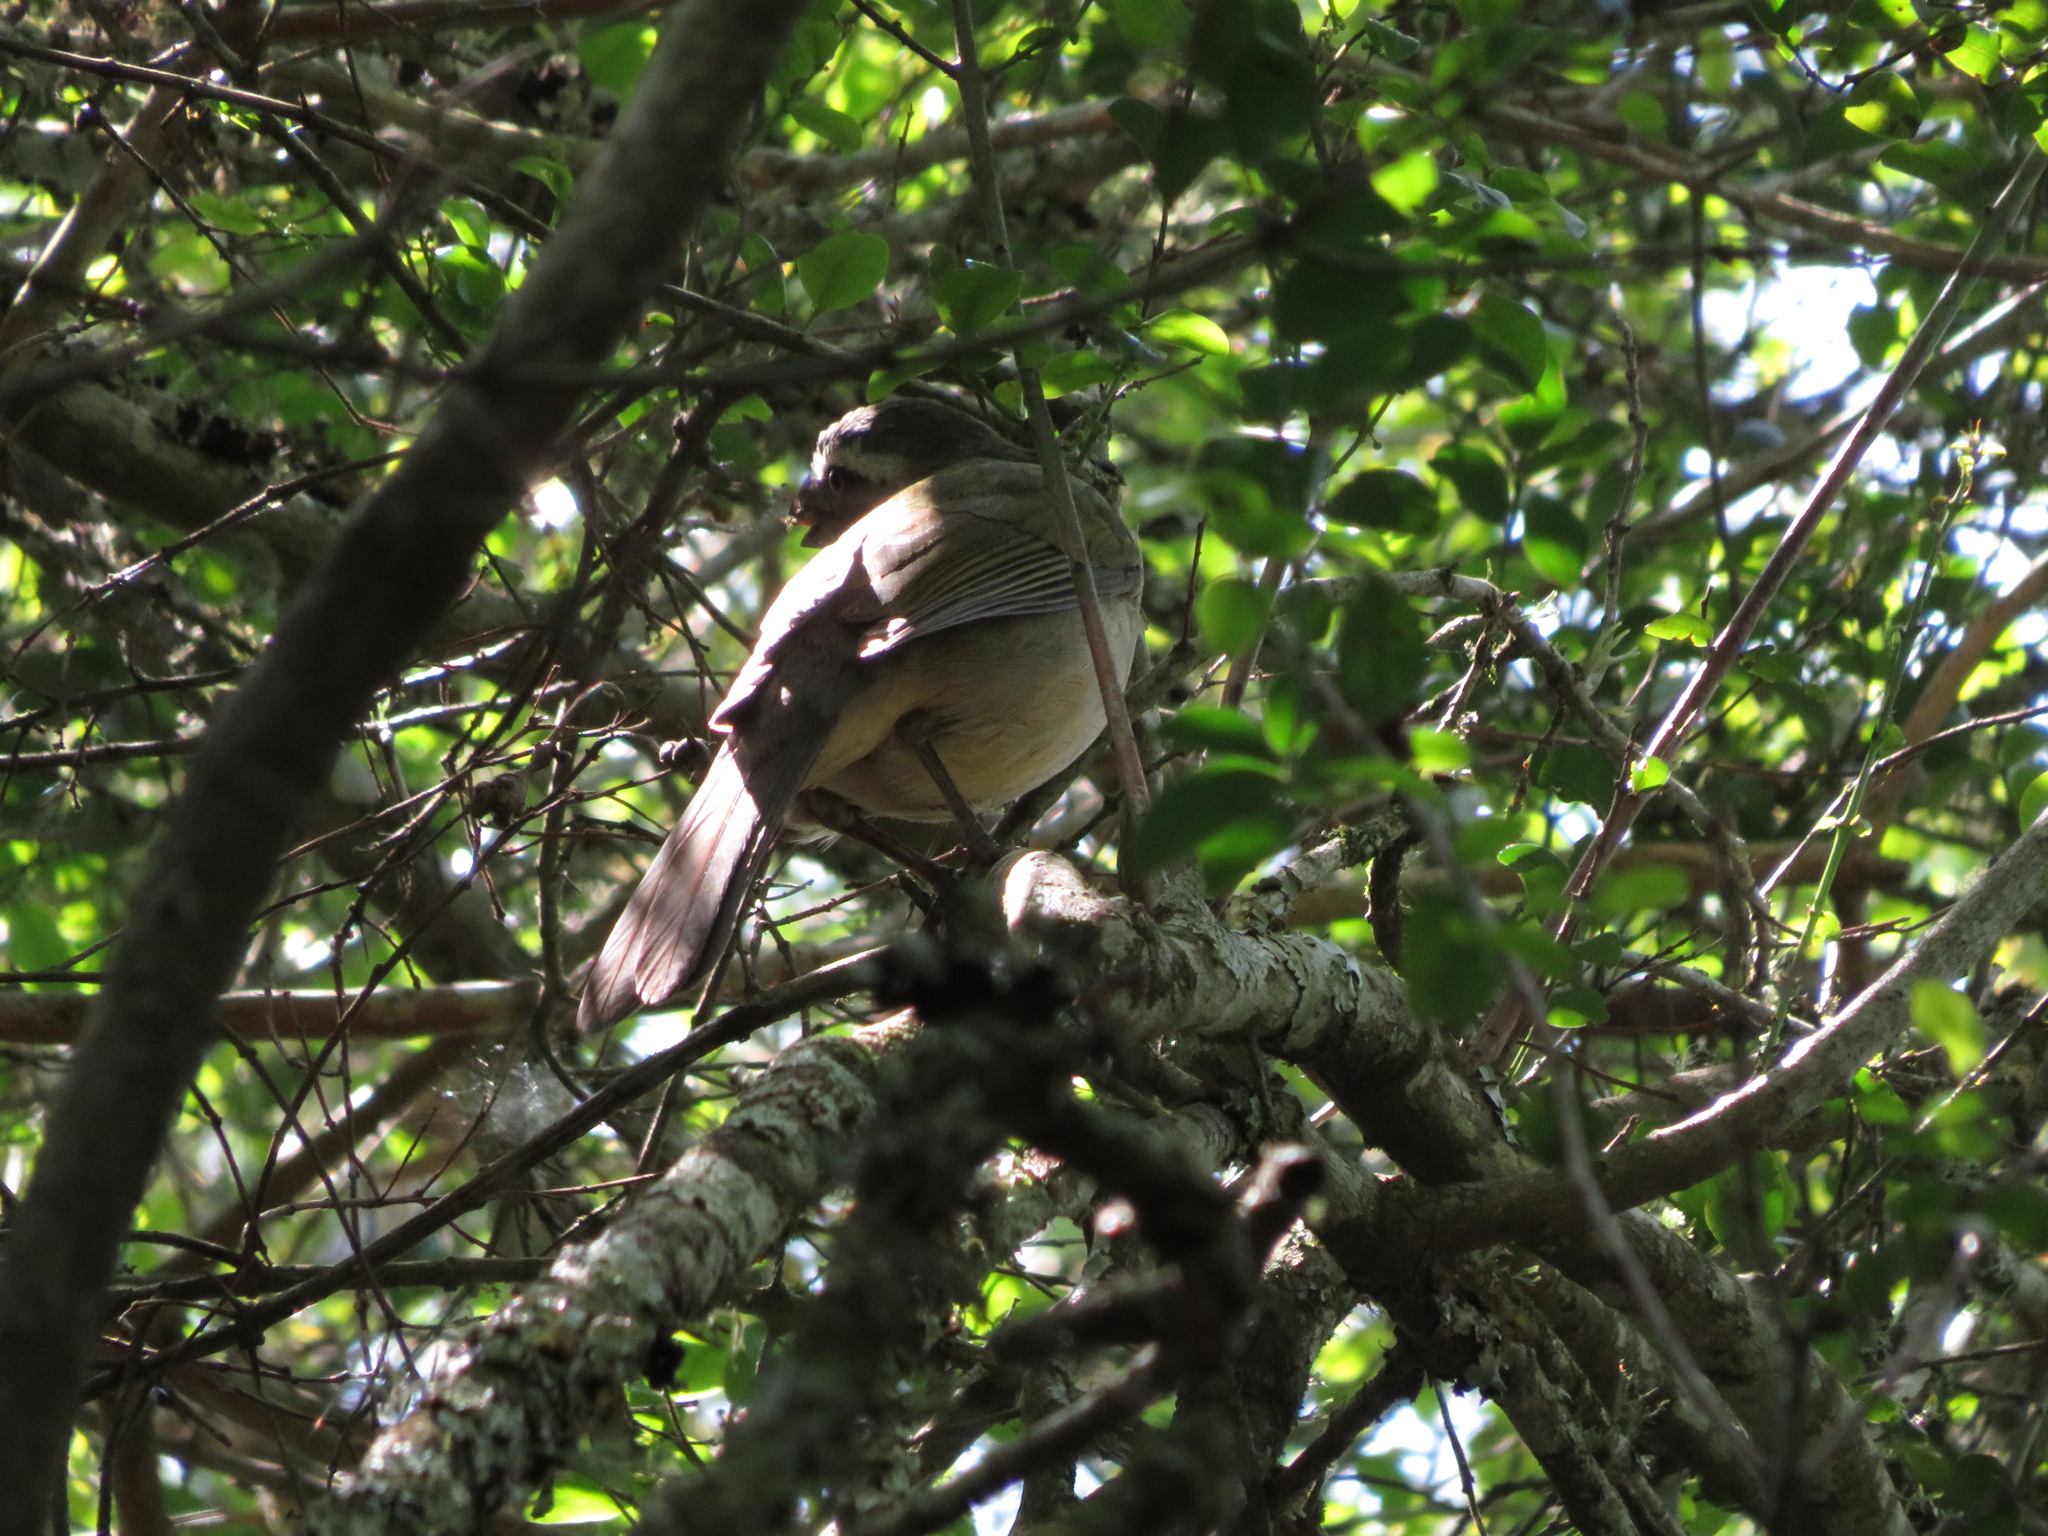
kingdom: Animalia
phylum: Chordata
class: Aves
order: Passeriformes
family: Thraupidae
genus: Saltator
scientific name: Saltator coerulescens
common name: Grayish saltator
